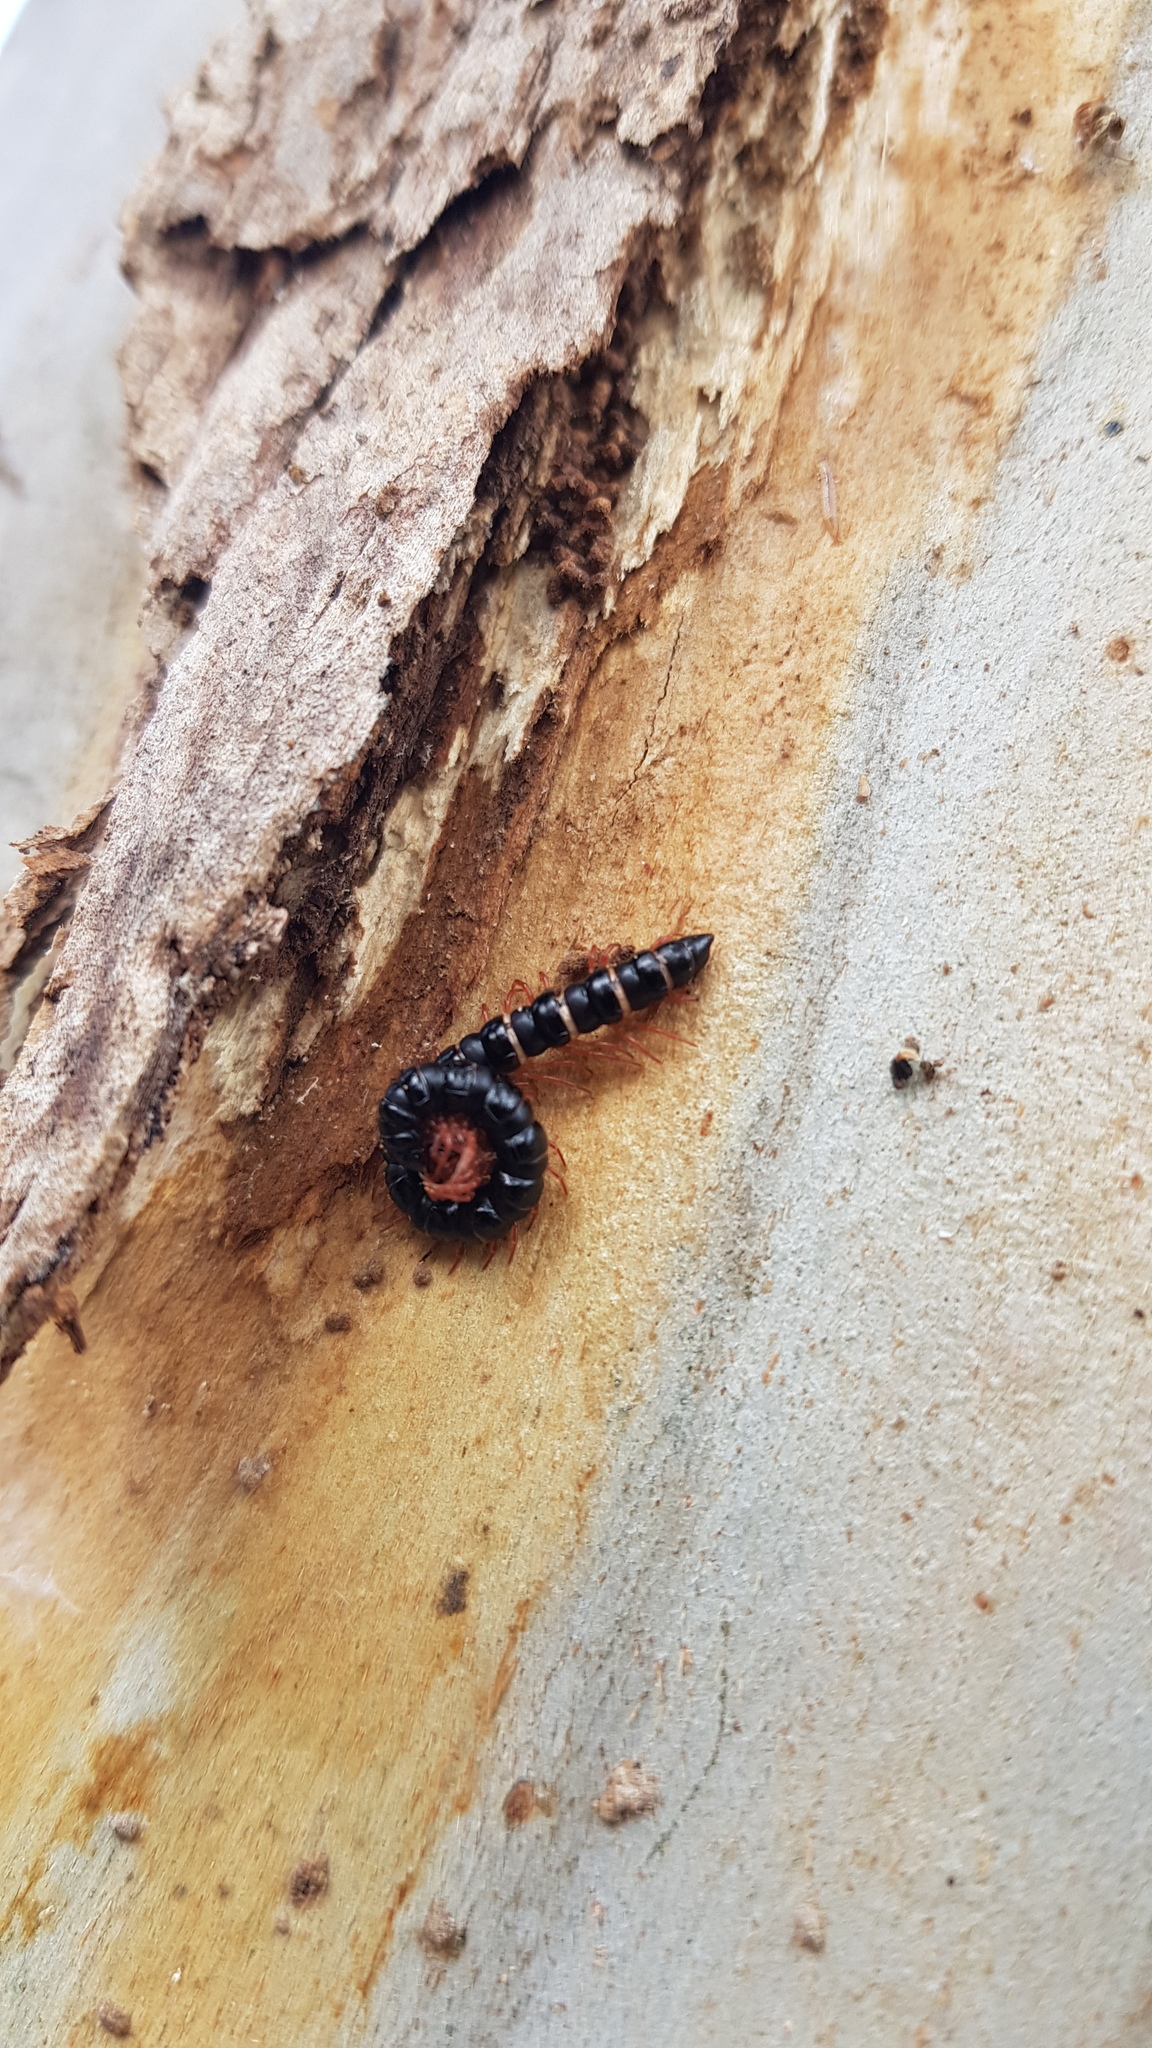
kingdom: Animalia
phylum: Arthropoda
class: Diplopoda
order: Polydesmida
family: Paradoxosomatidae
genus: Heterocladosoma
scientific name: Heterocladosoma
